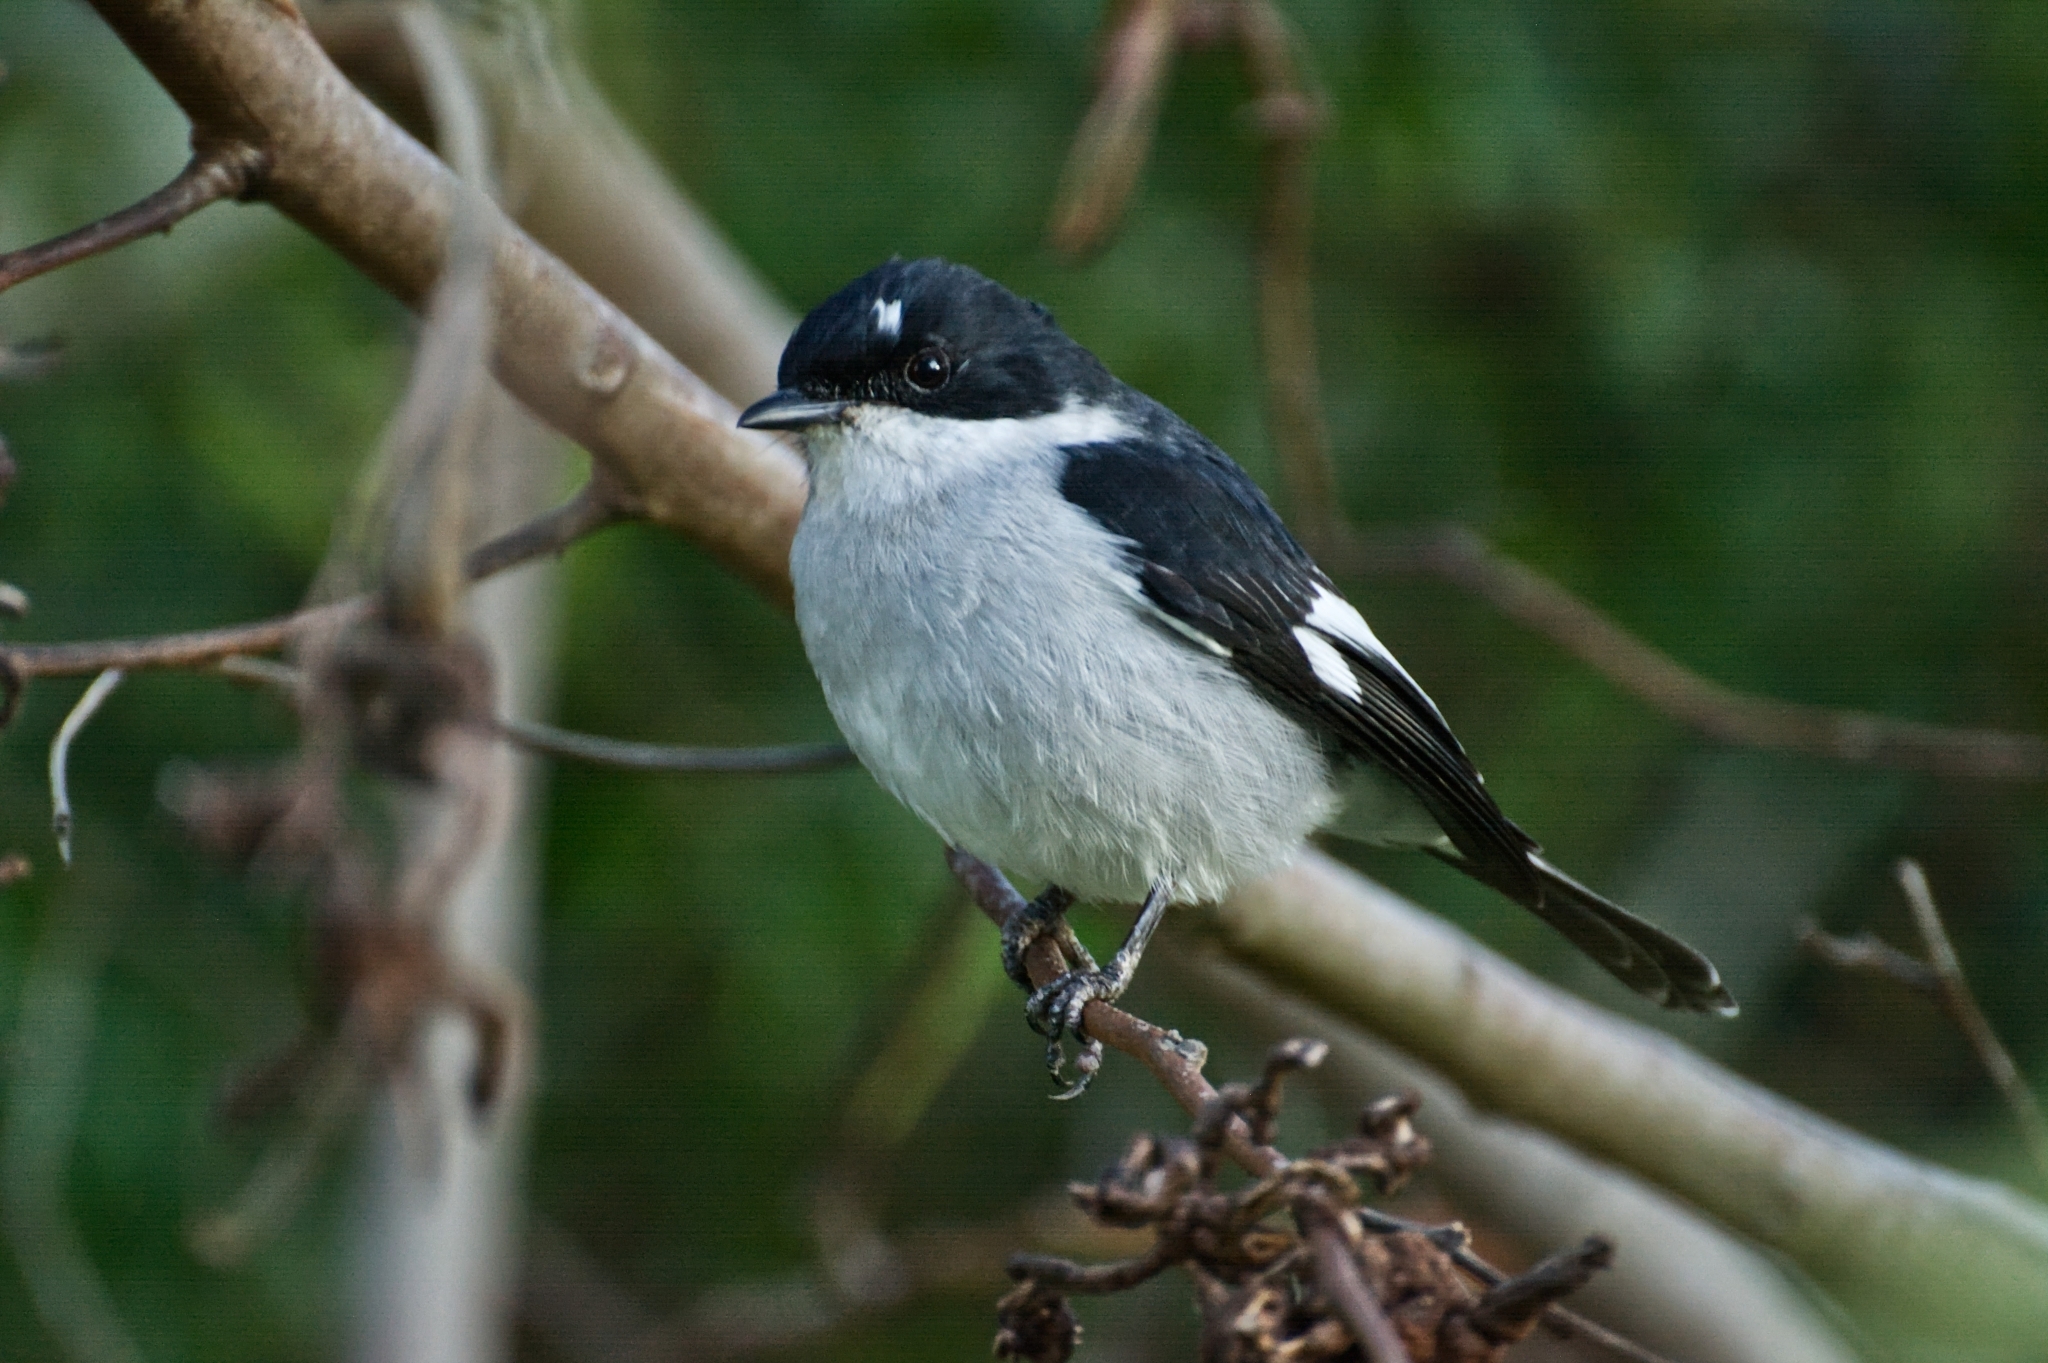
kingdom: Animalia
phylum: Chordata
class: Aves
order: Passeriformes
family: Muscicapidae
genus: Sigelus
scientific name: Sigelus silens
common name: Fiscal flycatcher
